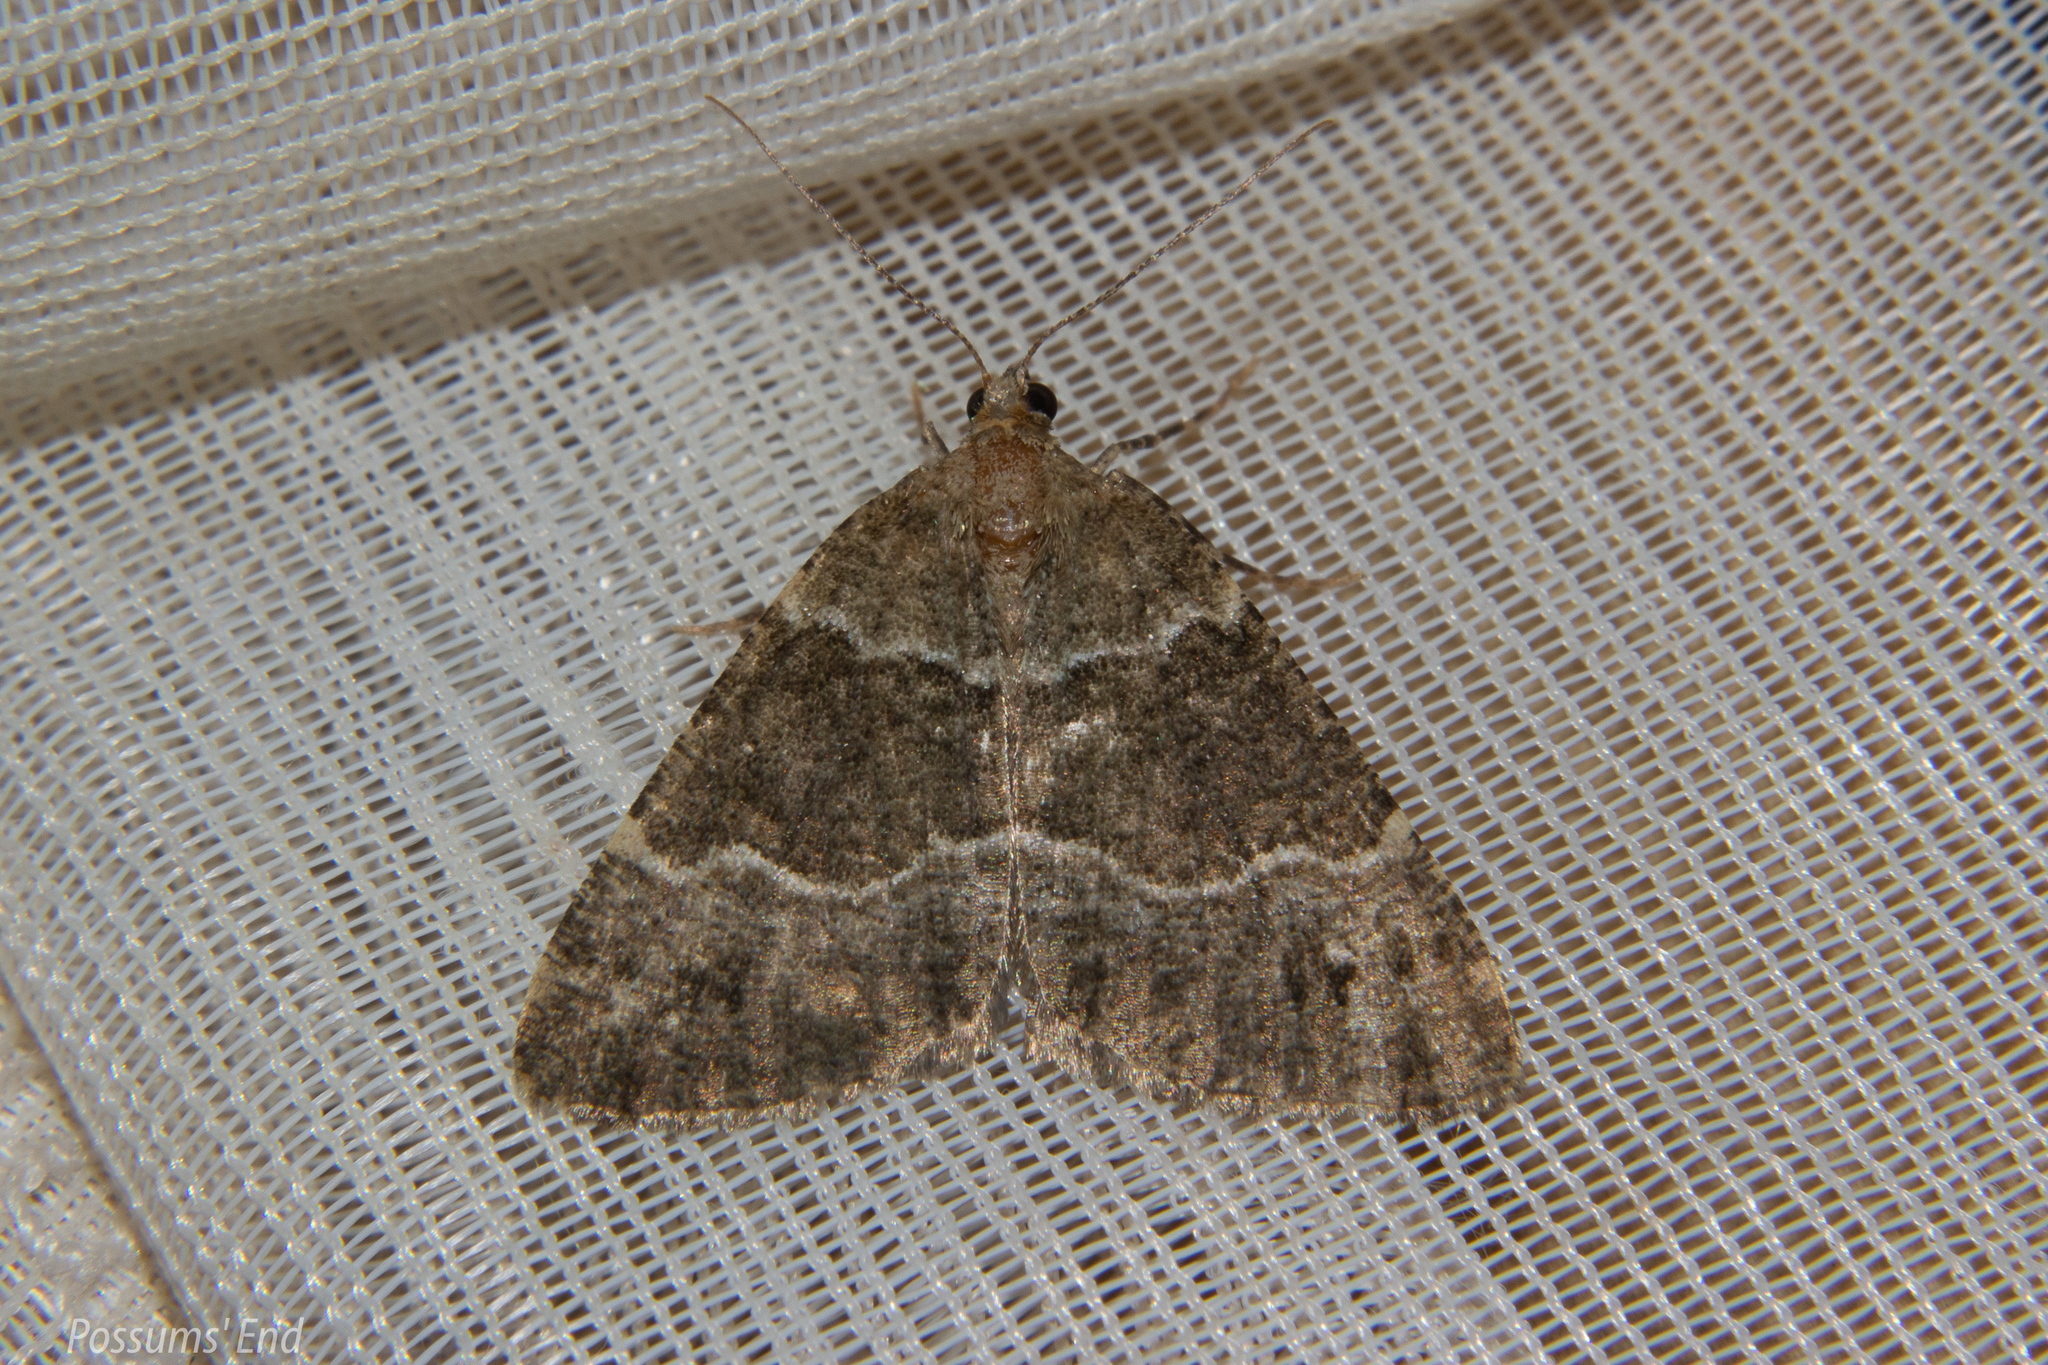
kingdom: Animalia
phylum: Arthropoda
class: Insecta
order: Lepidoptera
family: Geometridae
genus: Pseudocoremia
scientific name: Pseudocoremia
